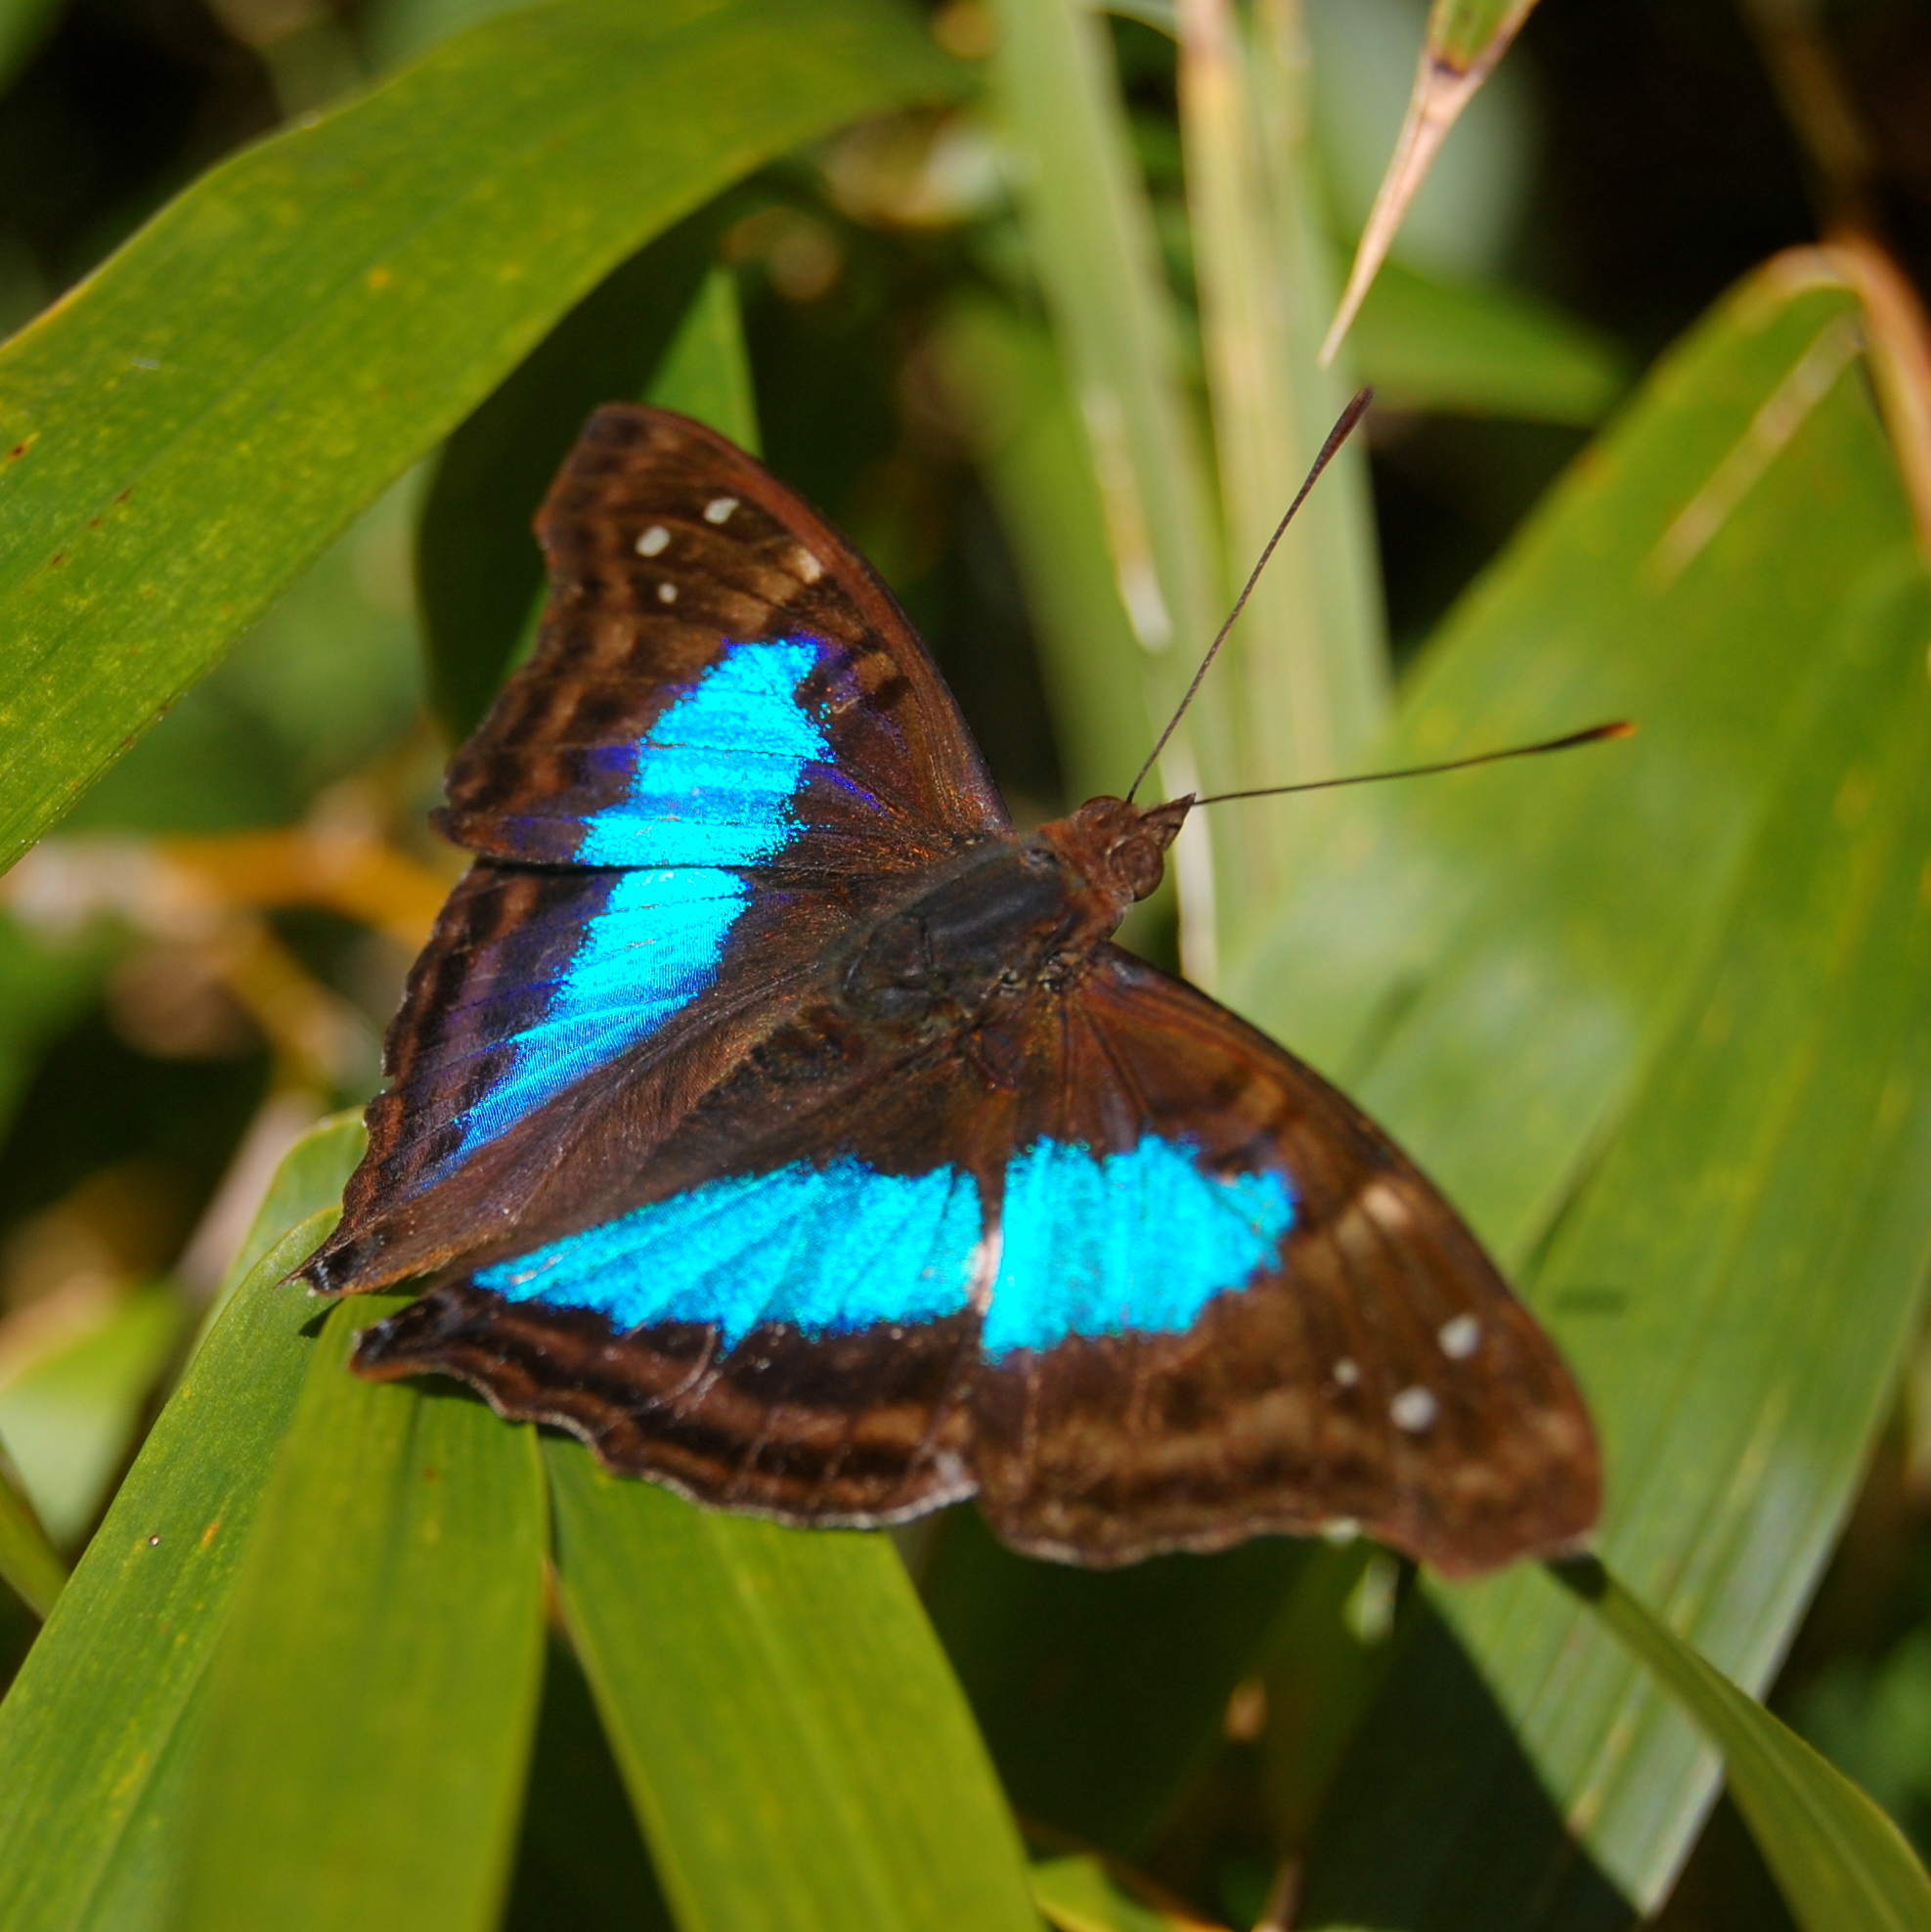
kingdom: Animalia
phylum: Arthropoda
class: Insecta
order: Lepidoptera
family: Nymphalidae
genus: Doxocopa
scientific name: Doxocopa laurentia
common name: Turquoise emperor
